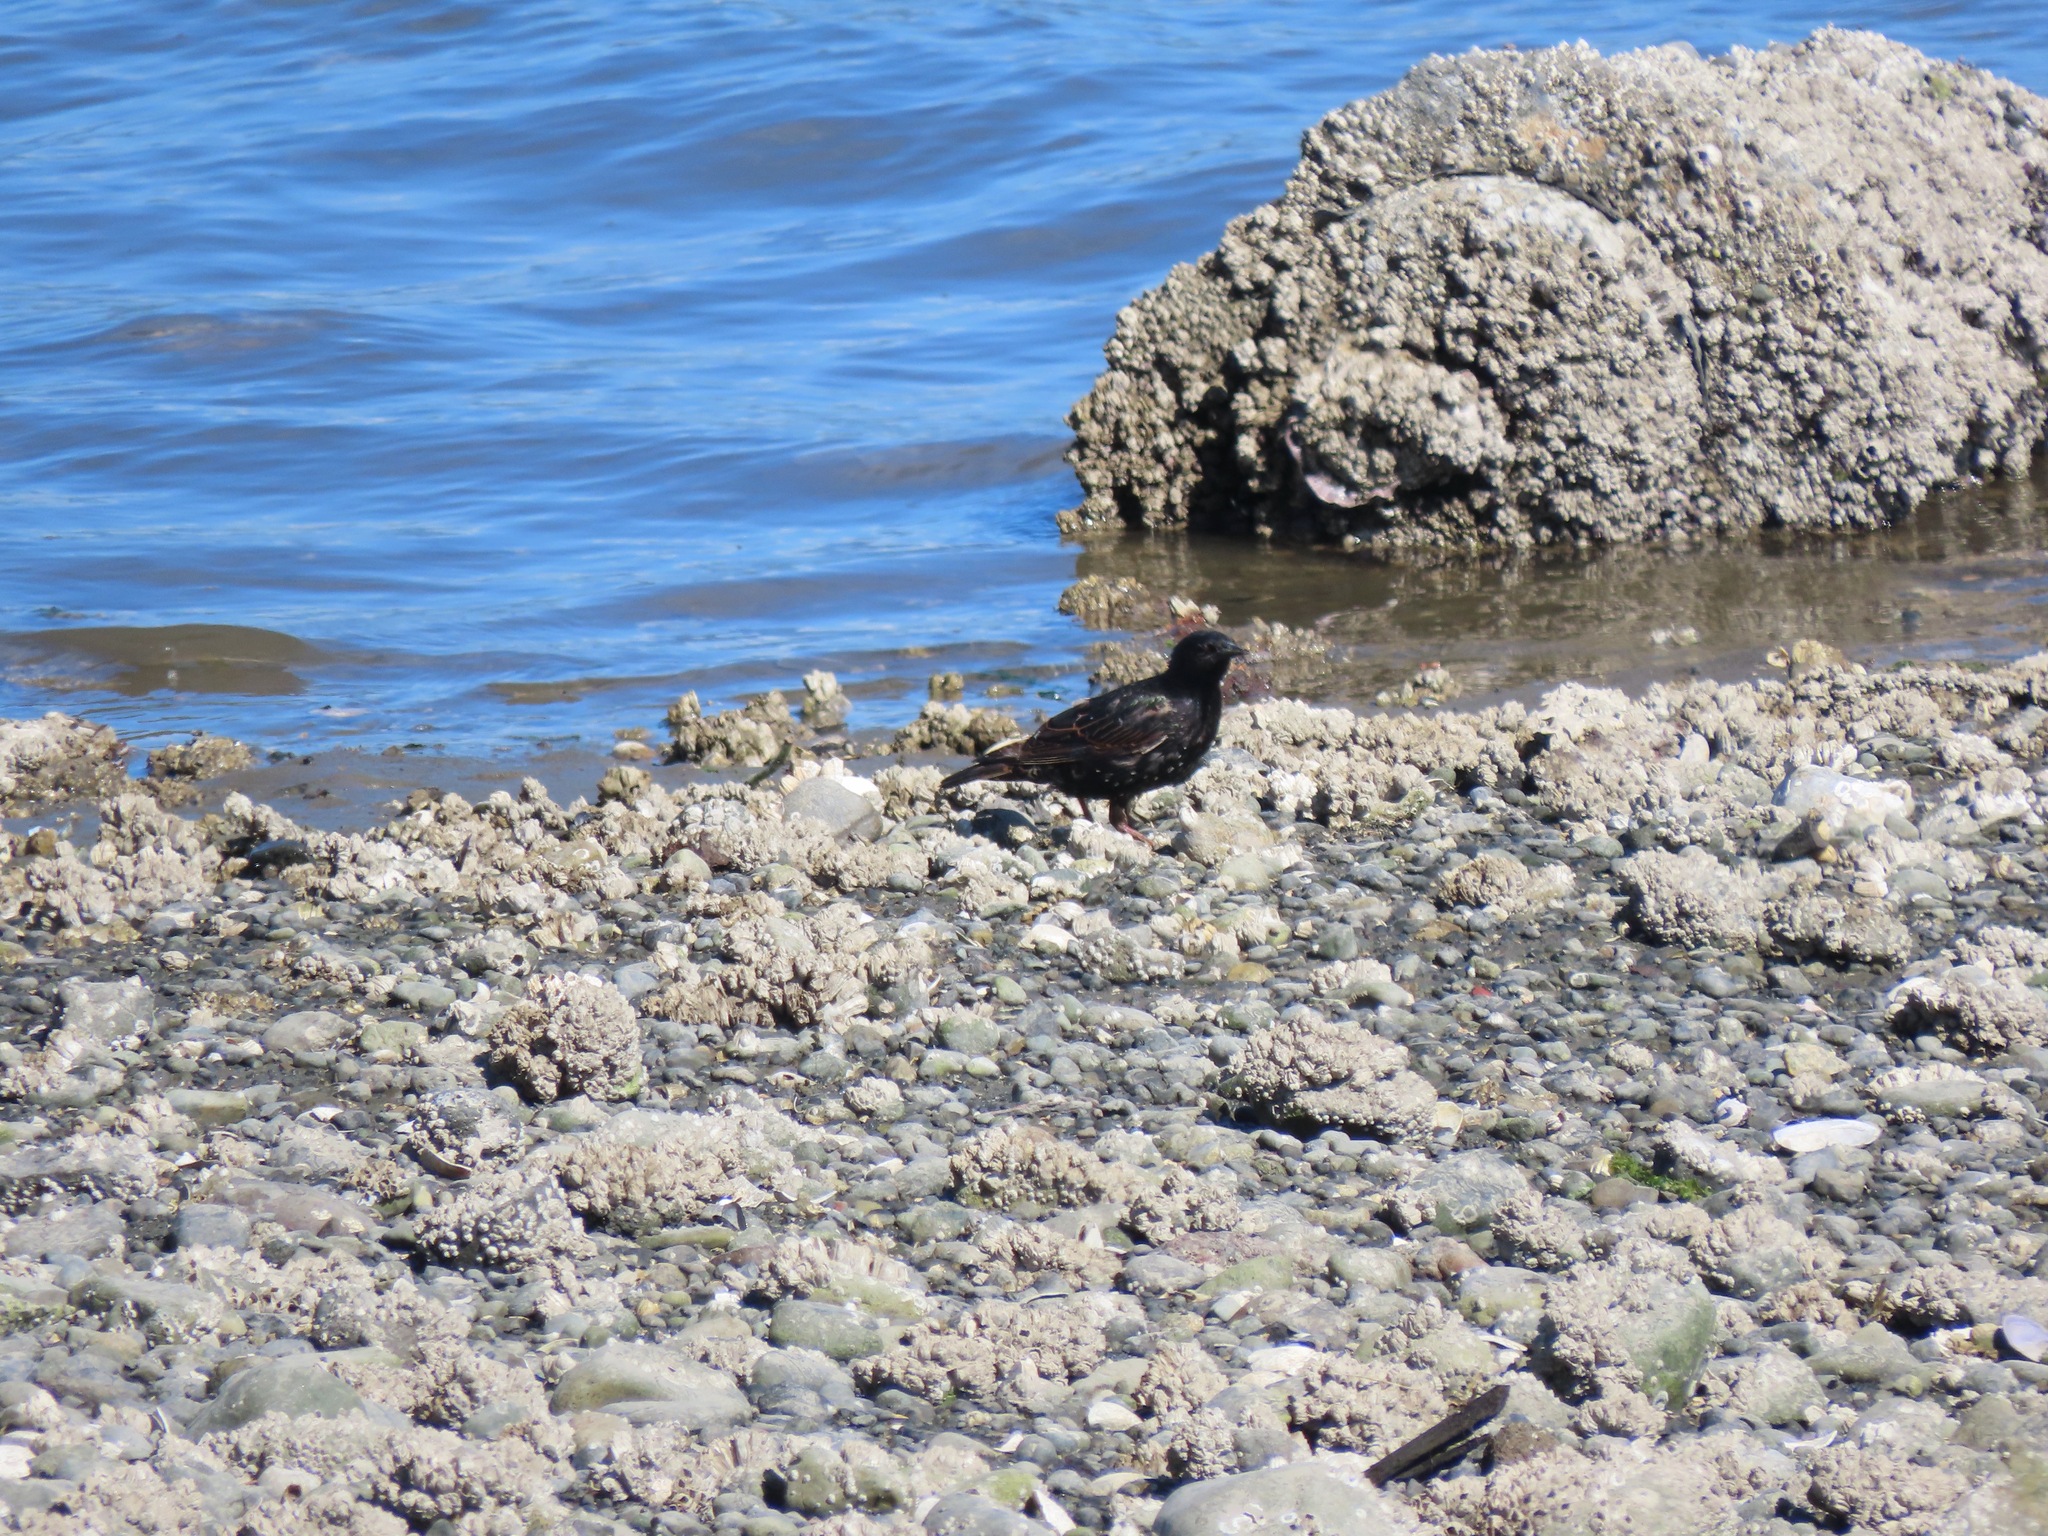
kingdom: Animalia
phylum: Chordata
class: Aves
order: Passeriformes
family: Sturnidae
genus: Sturnus
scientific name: Sturnus vulgaris
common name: Common starling
